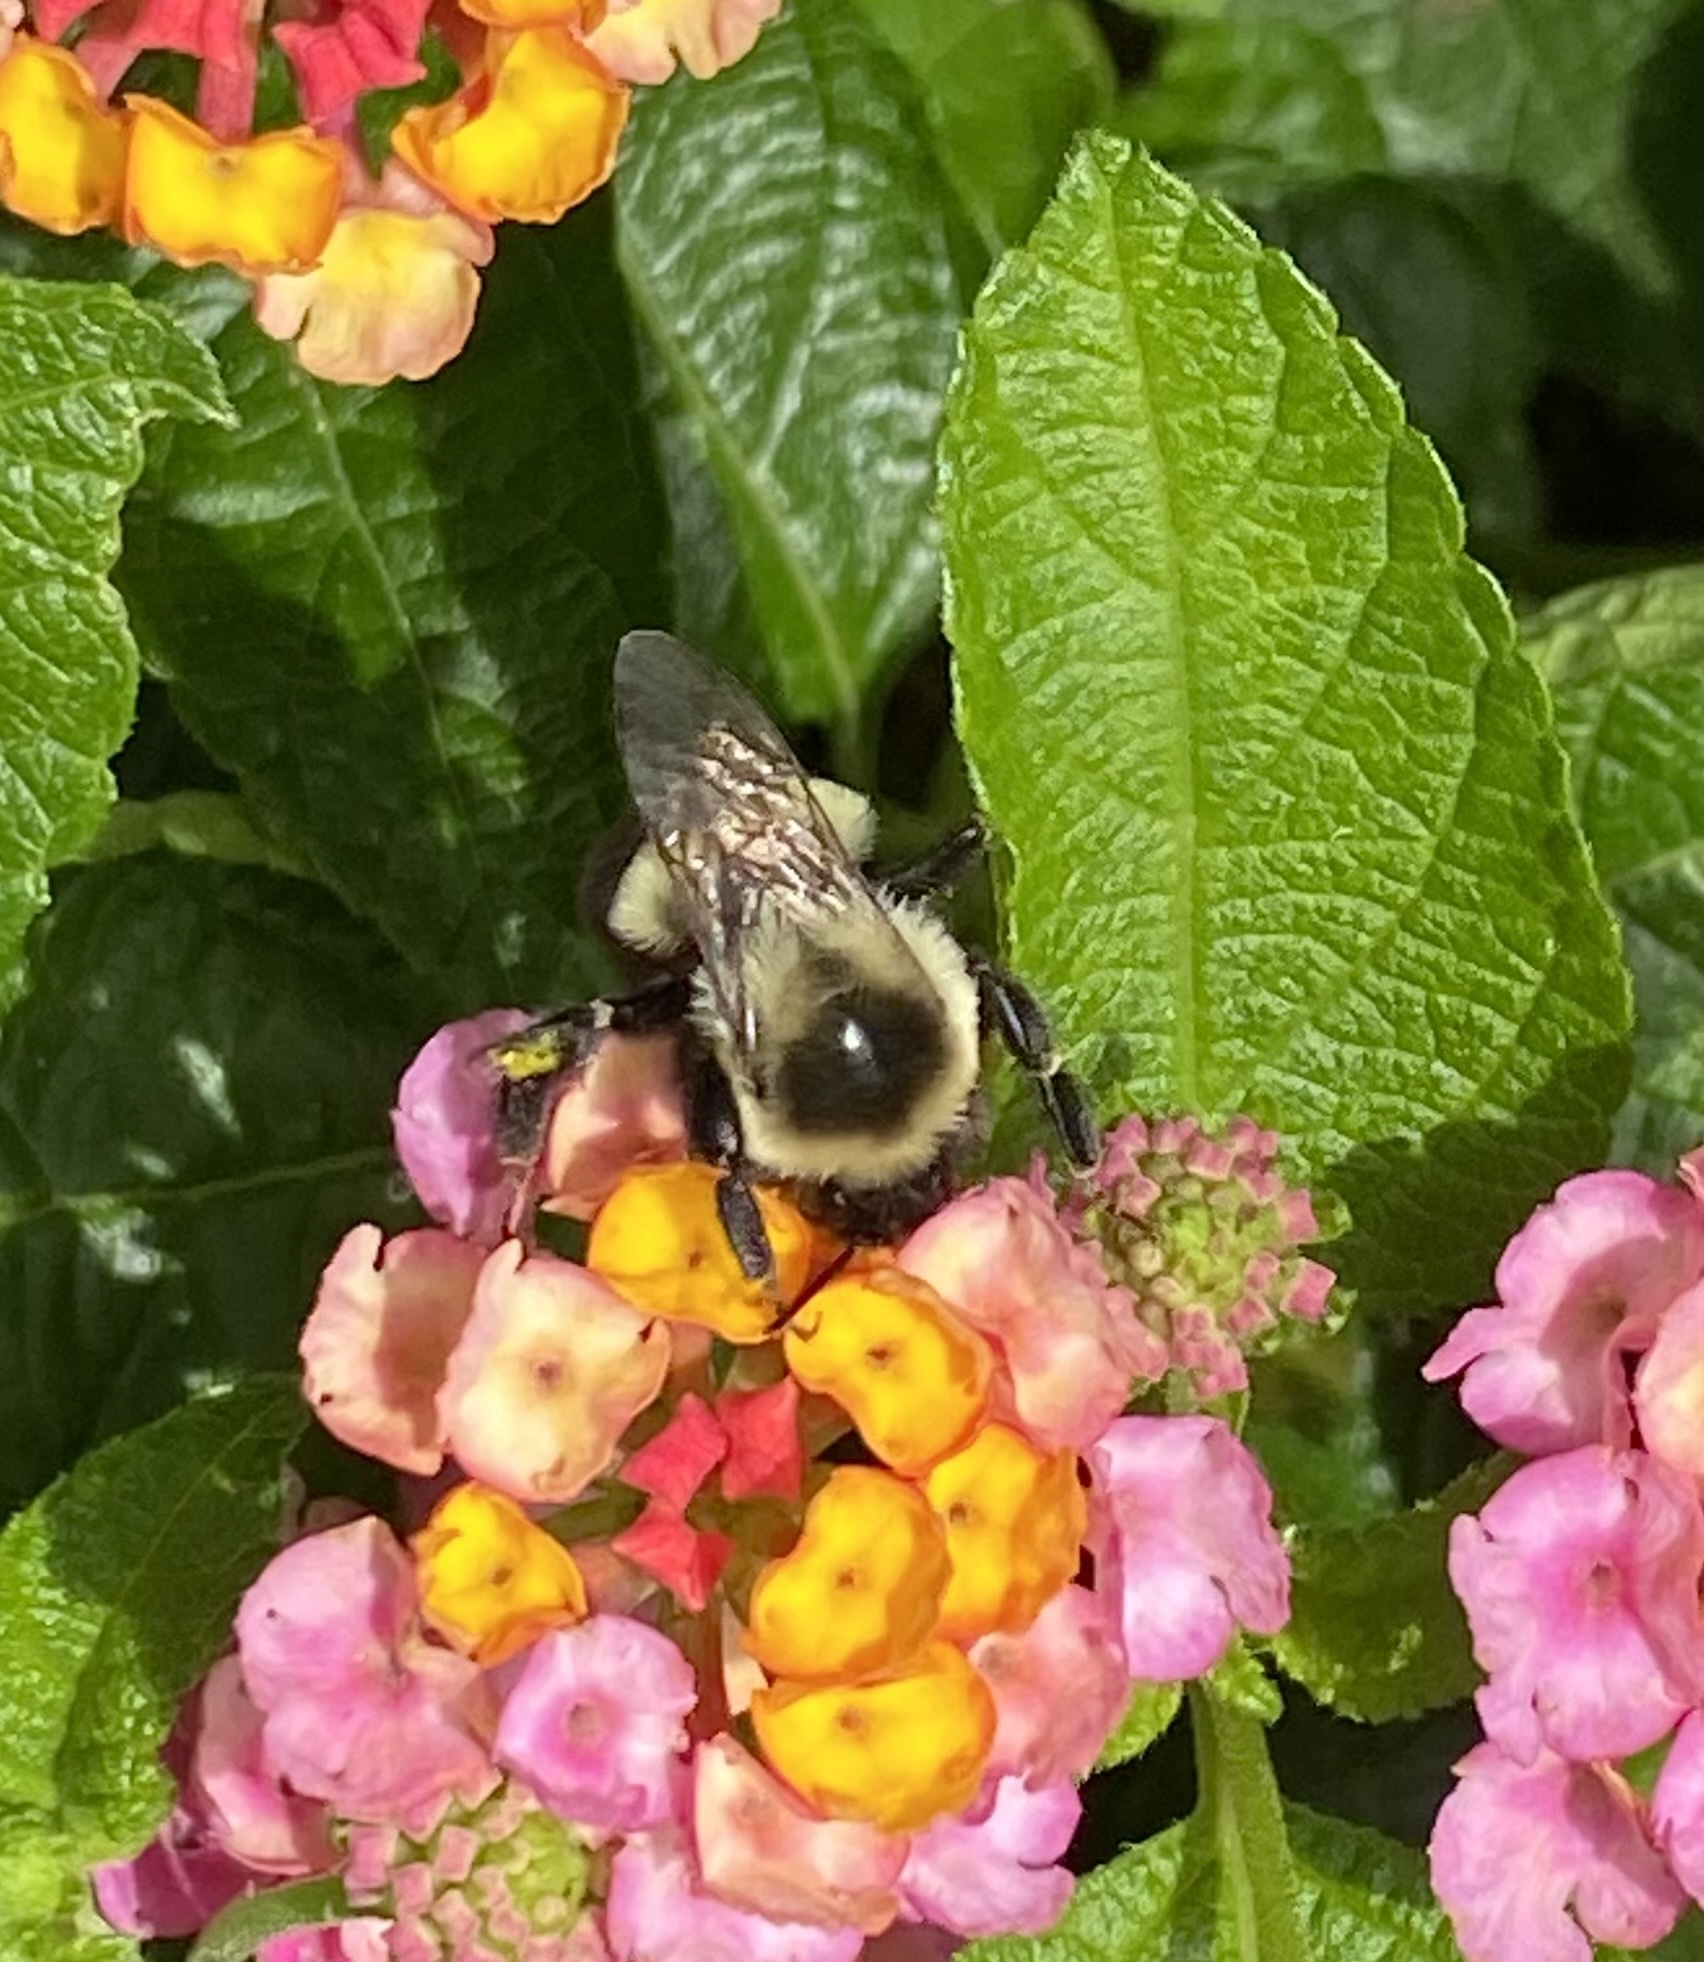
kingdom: Animalia
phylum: Arthropoda
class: Insecta
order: Hymenoptera
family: Apidae
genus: Bombus
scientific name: Bombus impatiens
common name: Common eastern bumble bee
